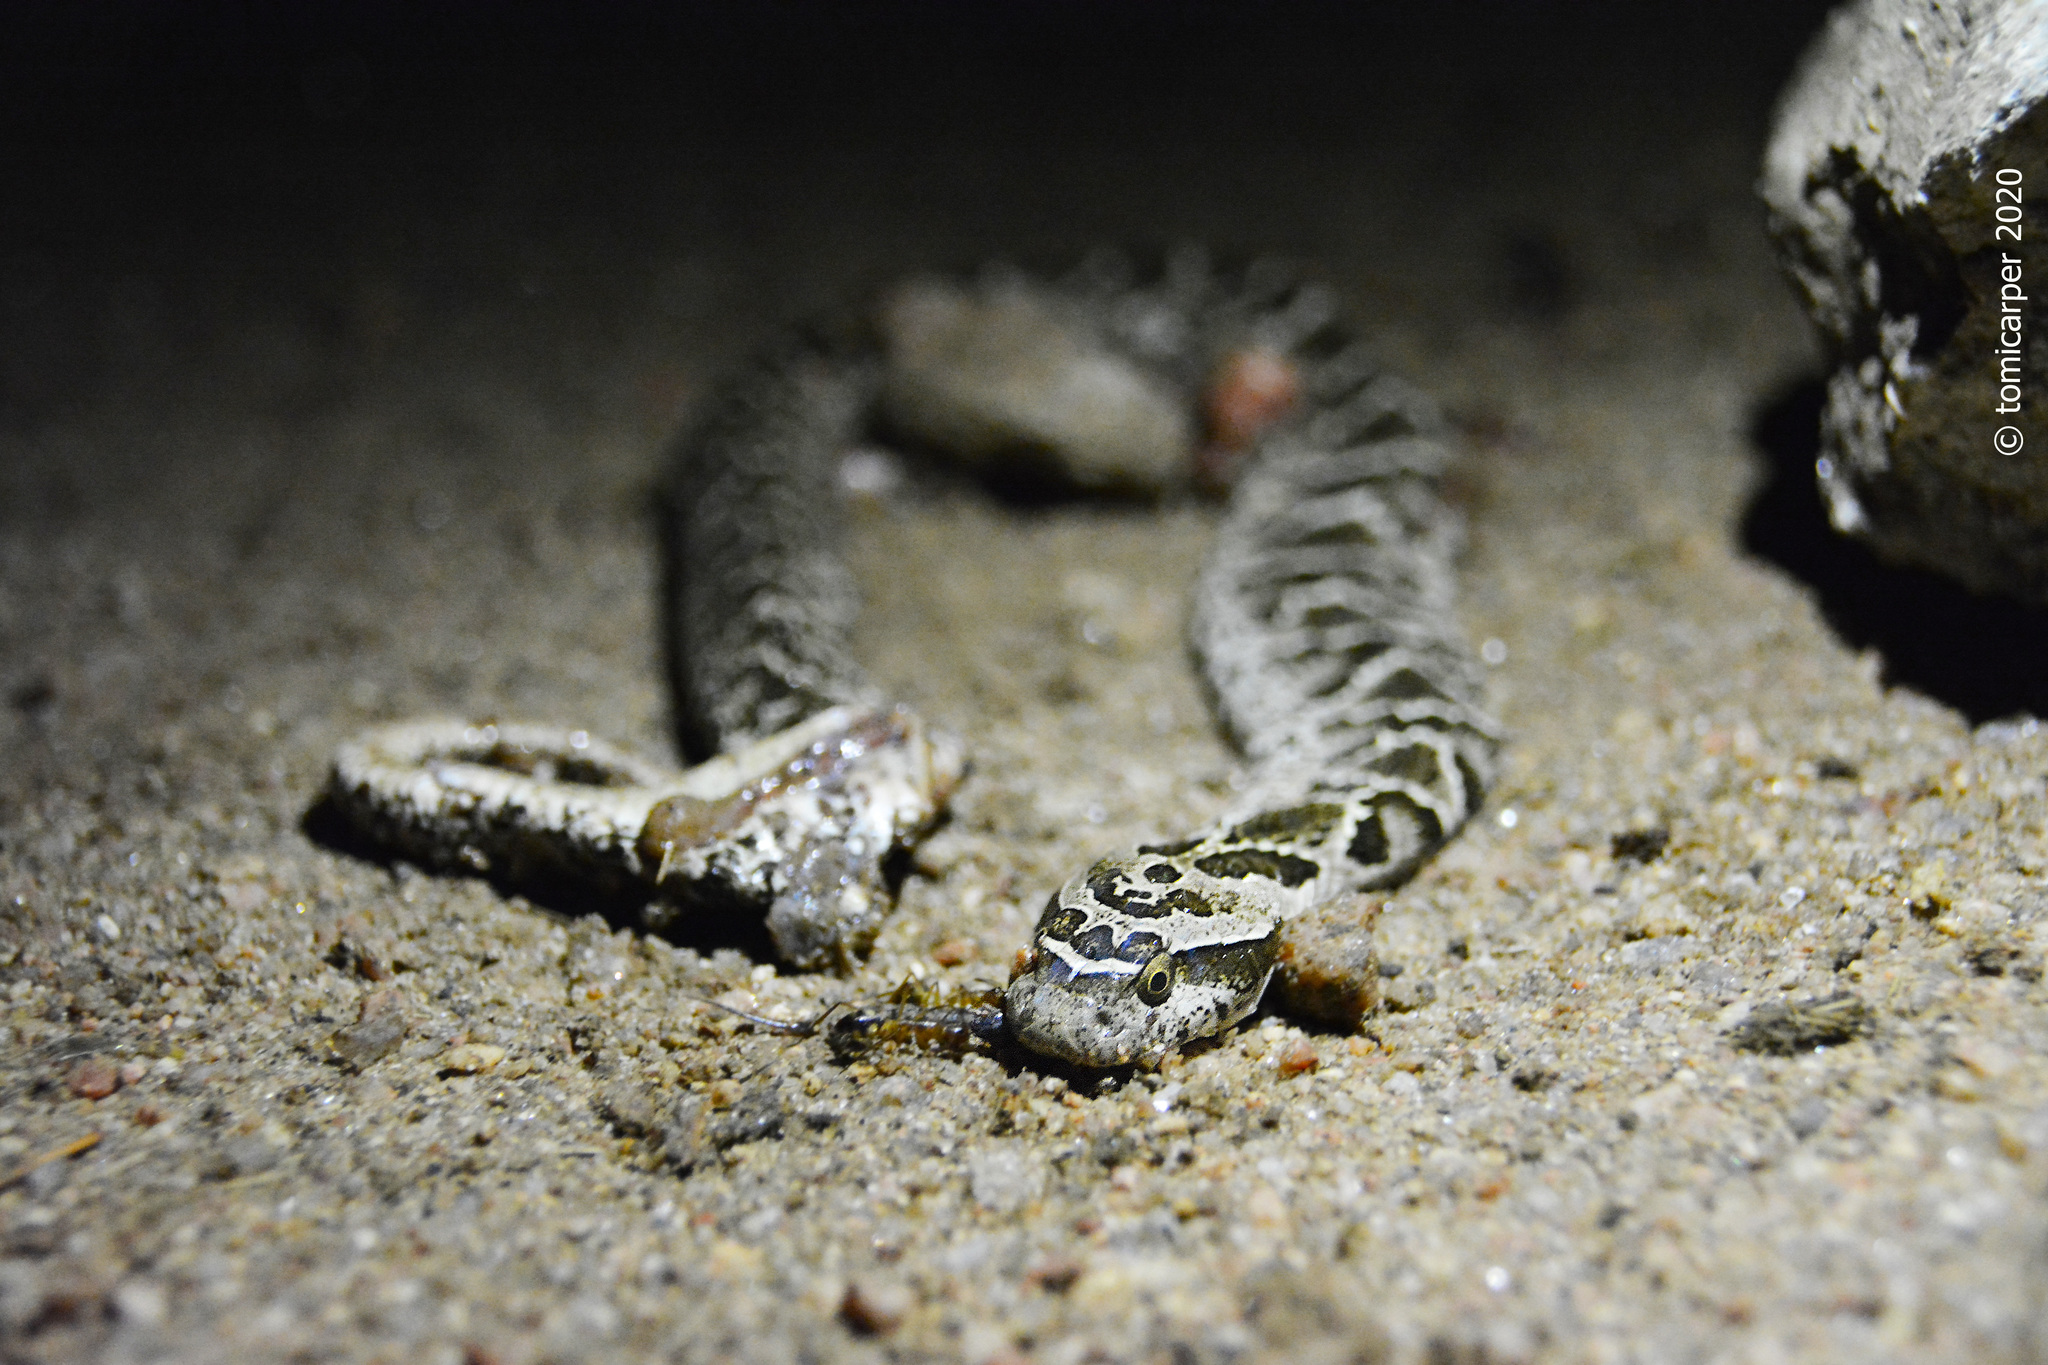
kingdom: Animalia
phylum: Chordata
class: Squamata
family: Colubridae
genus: Xenodon
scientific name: Xenodon merremii
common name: Wagler's snake
